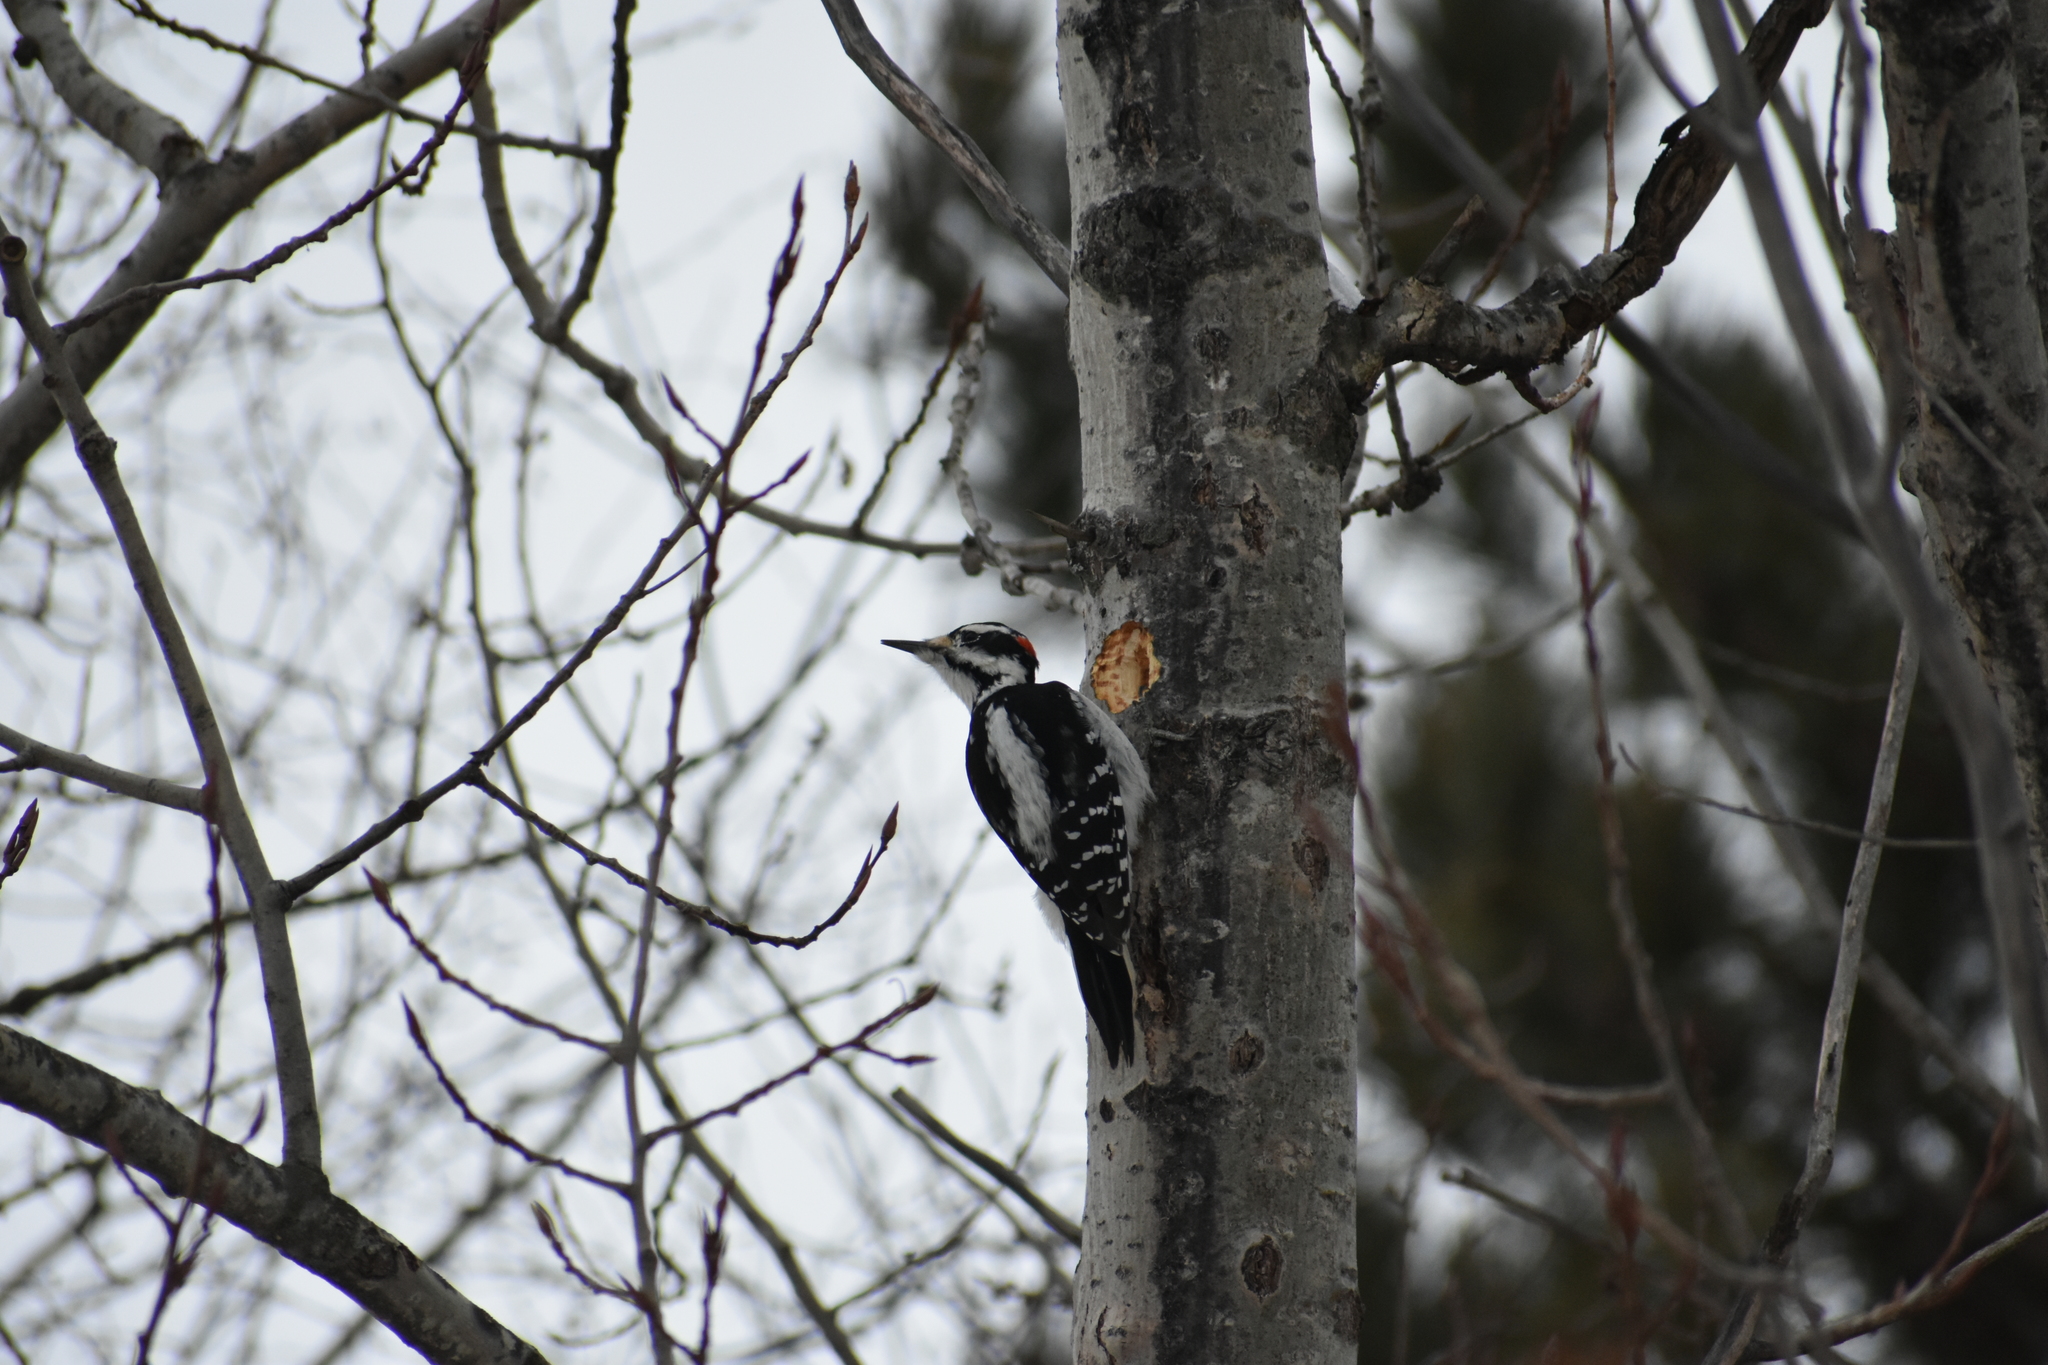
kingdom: Animalia
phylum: Chordata
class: Aves
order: Piciformes
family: Picidae
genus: Leuconotopicus
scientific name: Leuconotopicus villosus
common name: Hairy woodpecker
